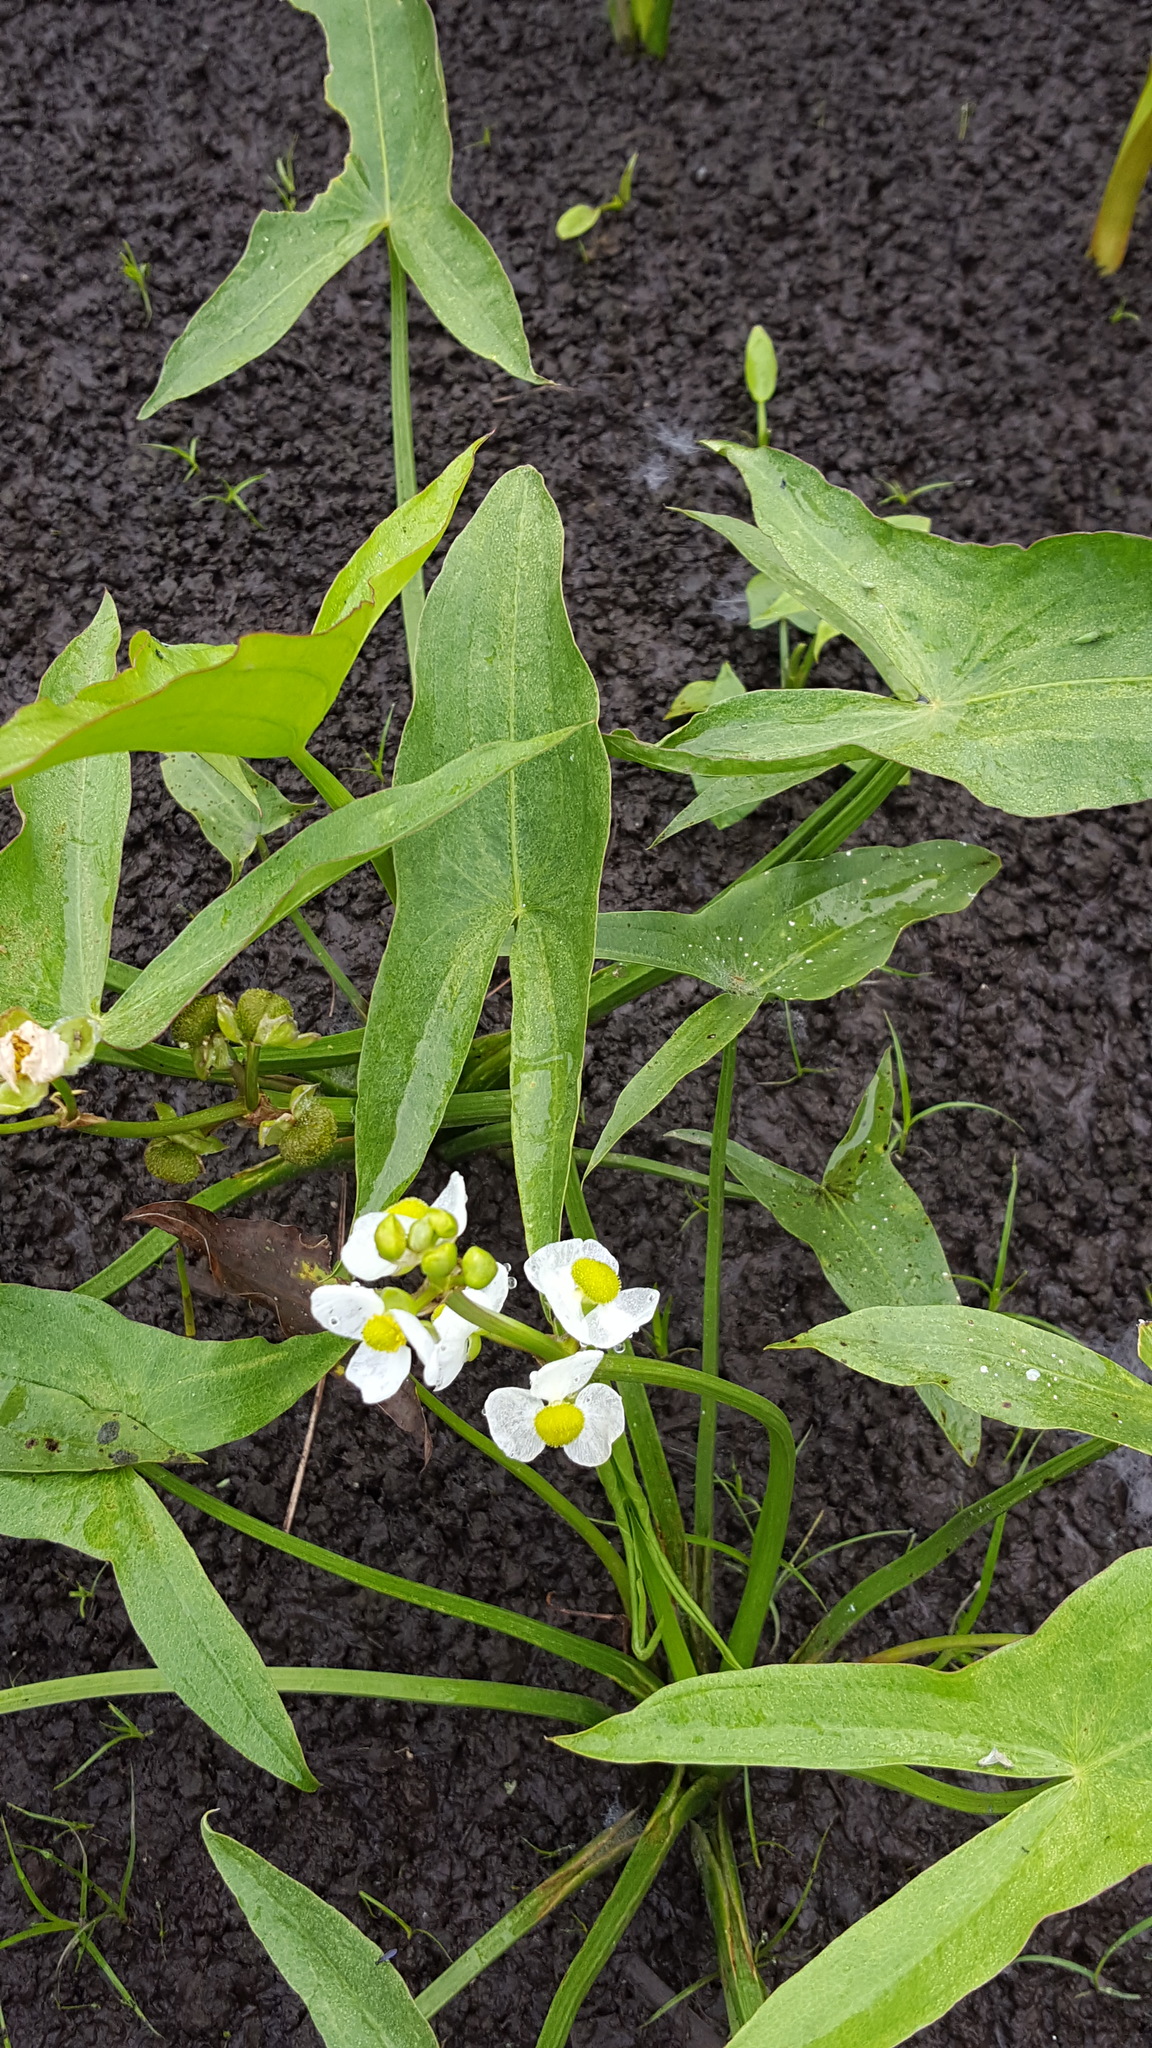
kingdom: Plantae
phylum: Tracheophyta
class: Liliopsida
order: Alismatales
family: Alismataceae
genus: Sagittaria
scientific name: Sagittaria latifolia
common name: Duck-potato
